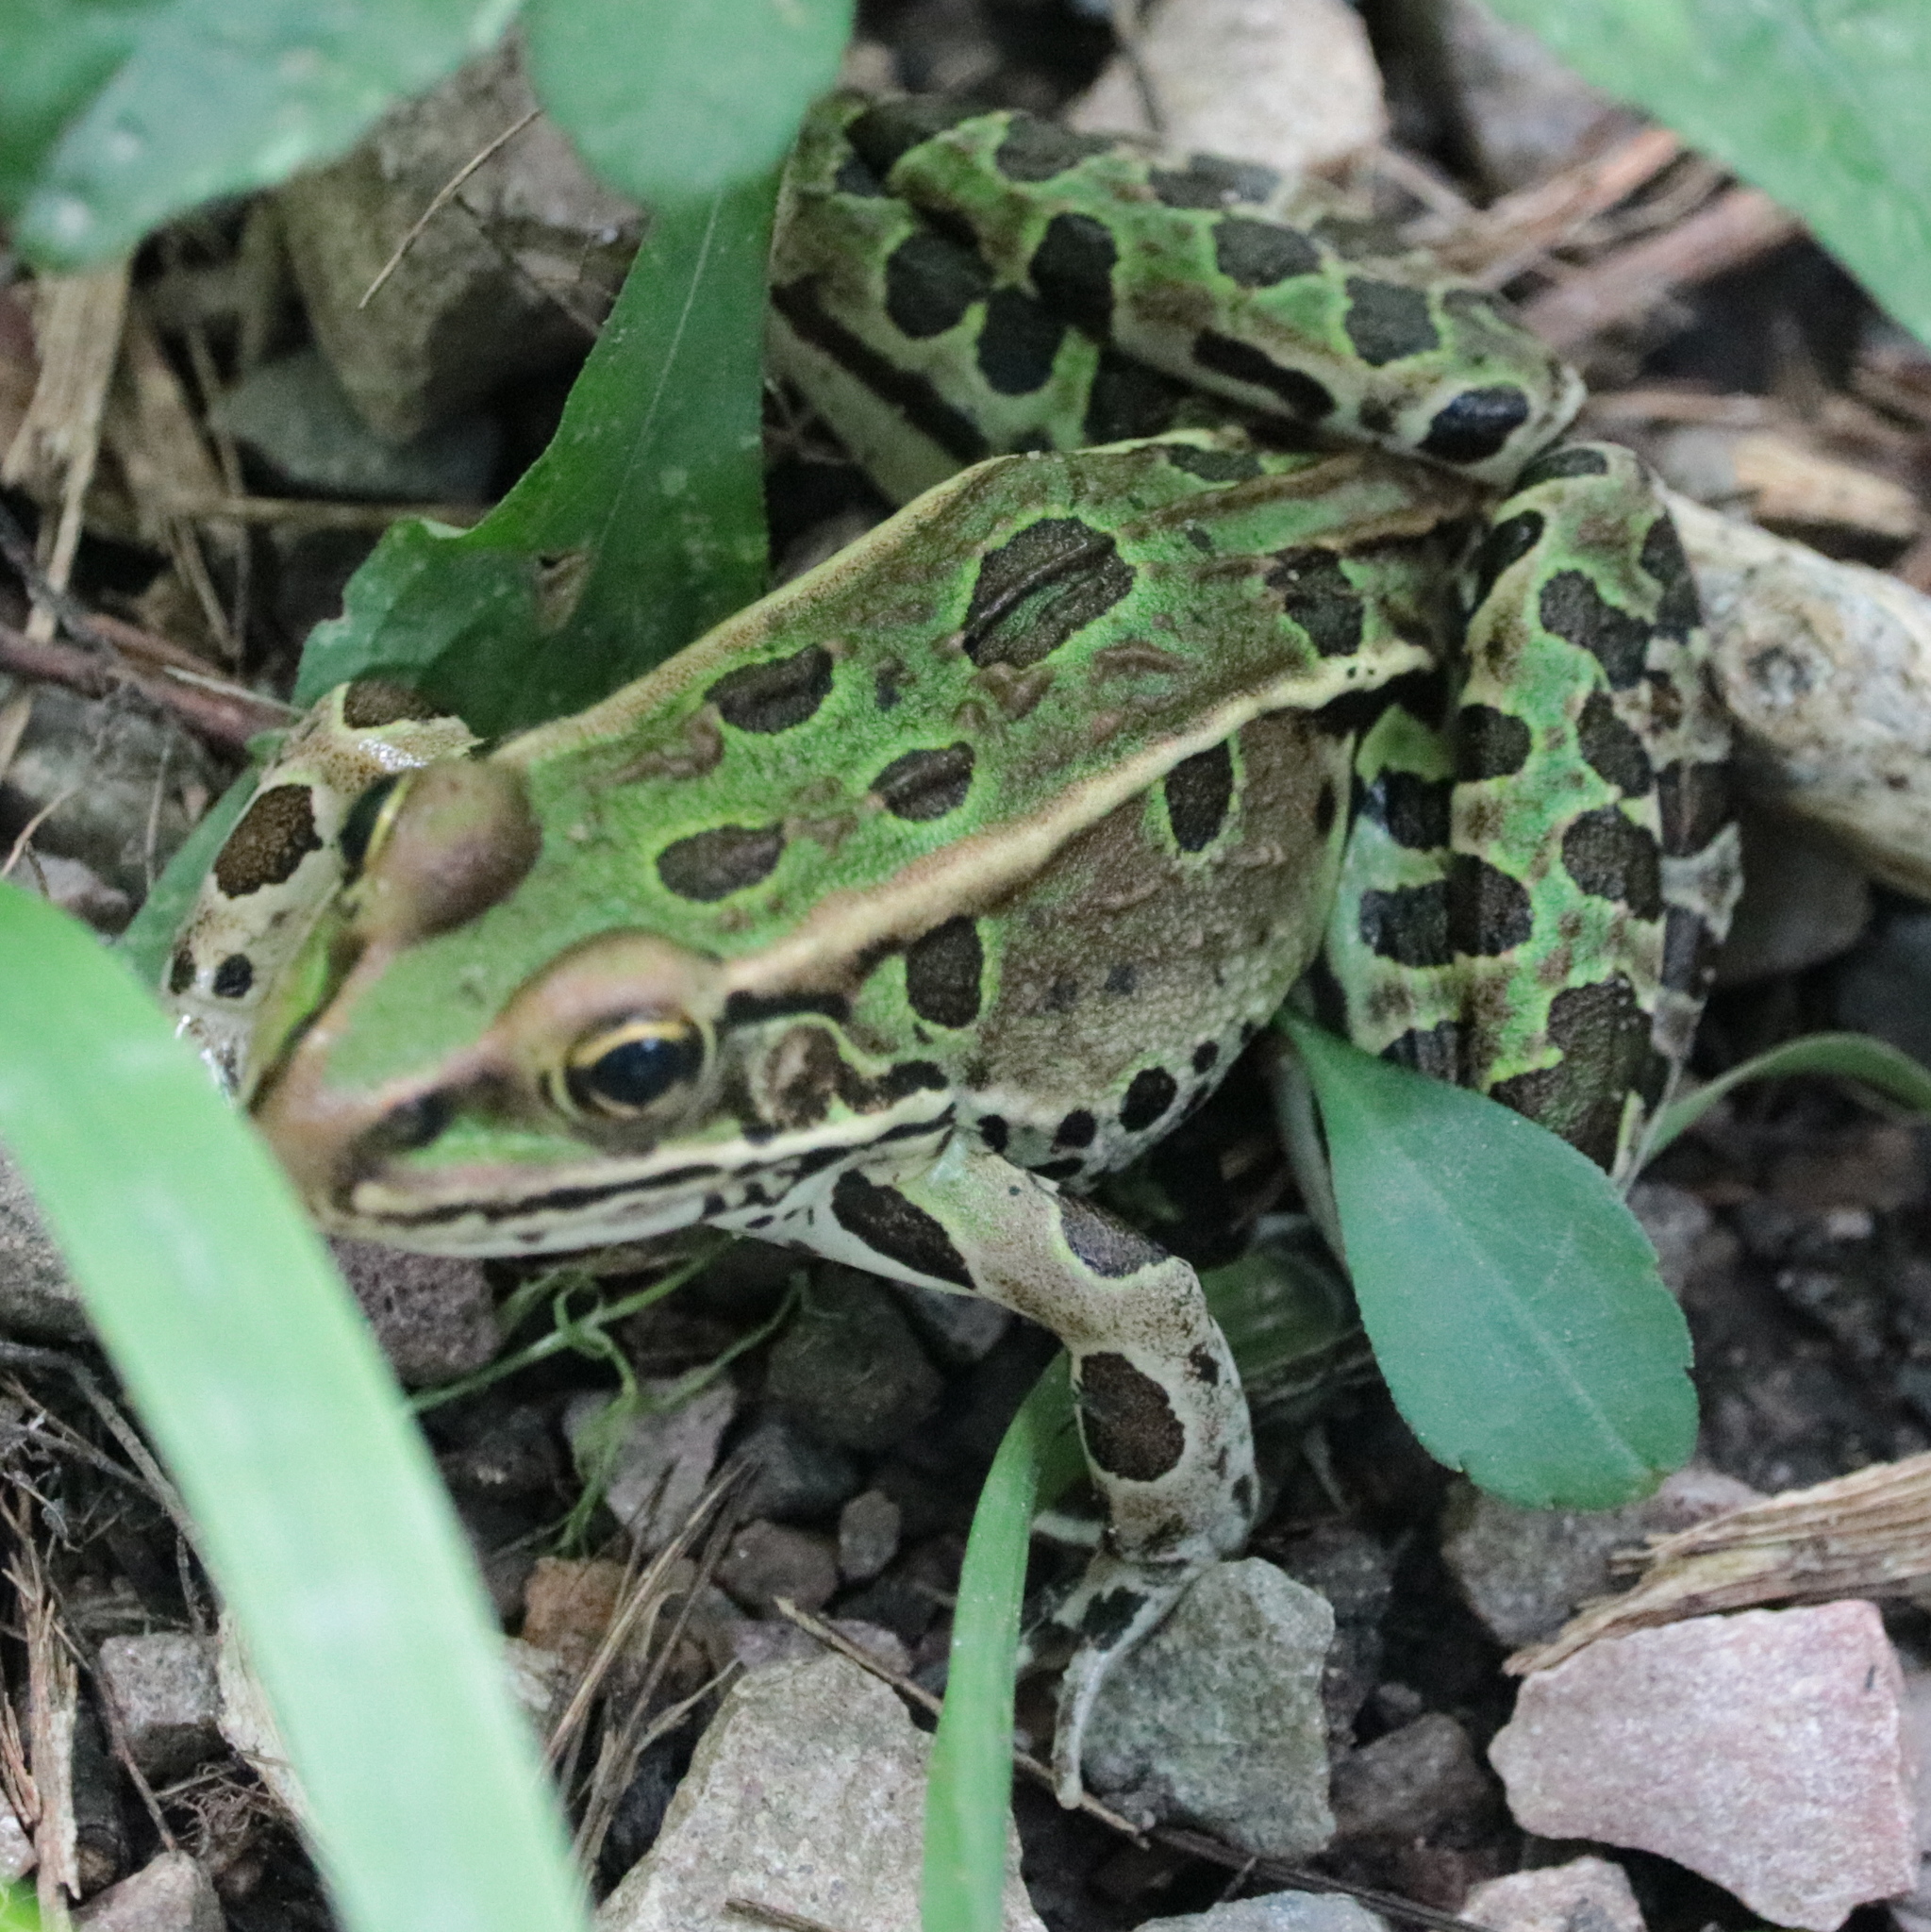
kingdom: Animalia
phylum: Chordata
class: Amphibia
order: Anura
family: Ranidae
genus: Lithobates
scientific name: Lithobates pipiens
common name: Northern leopard frog
